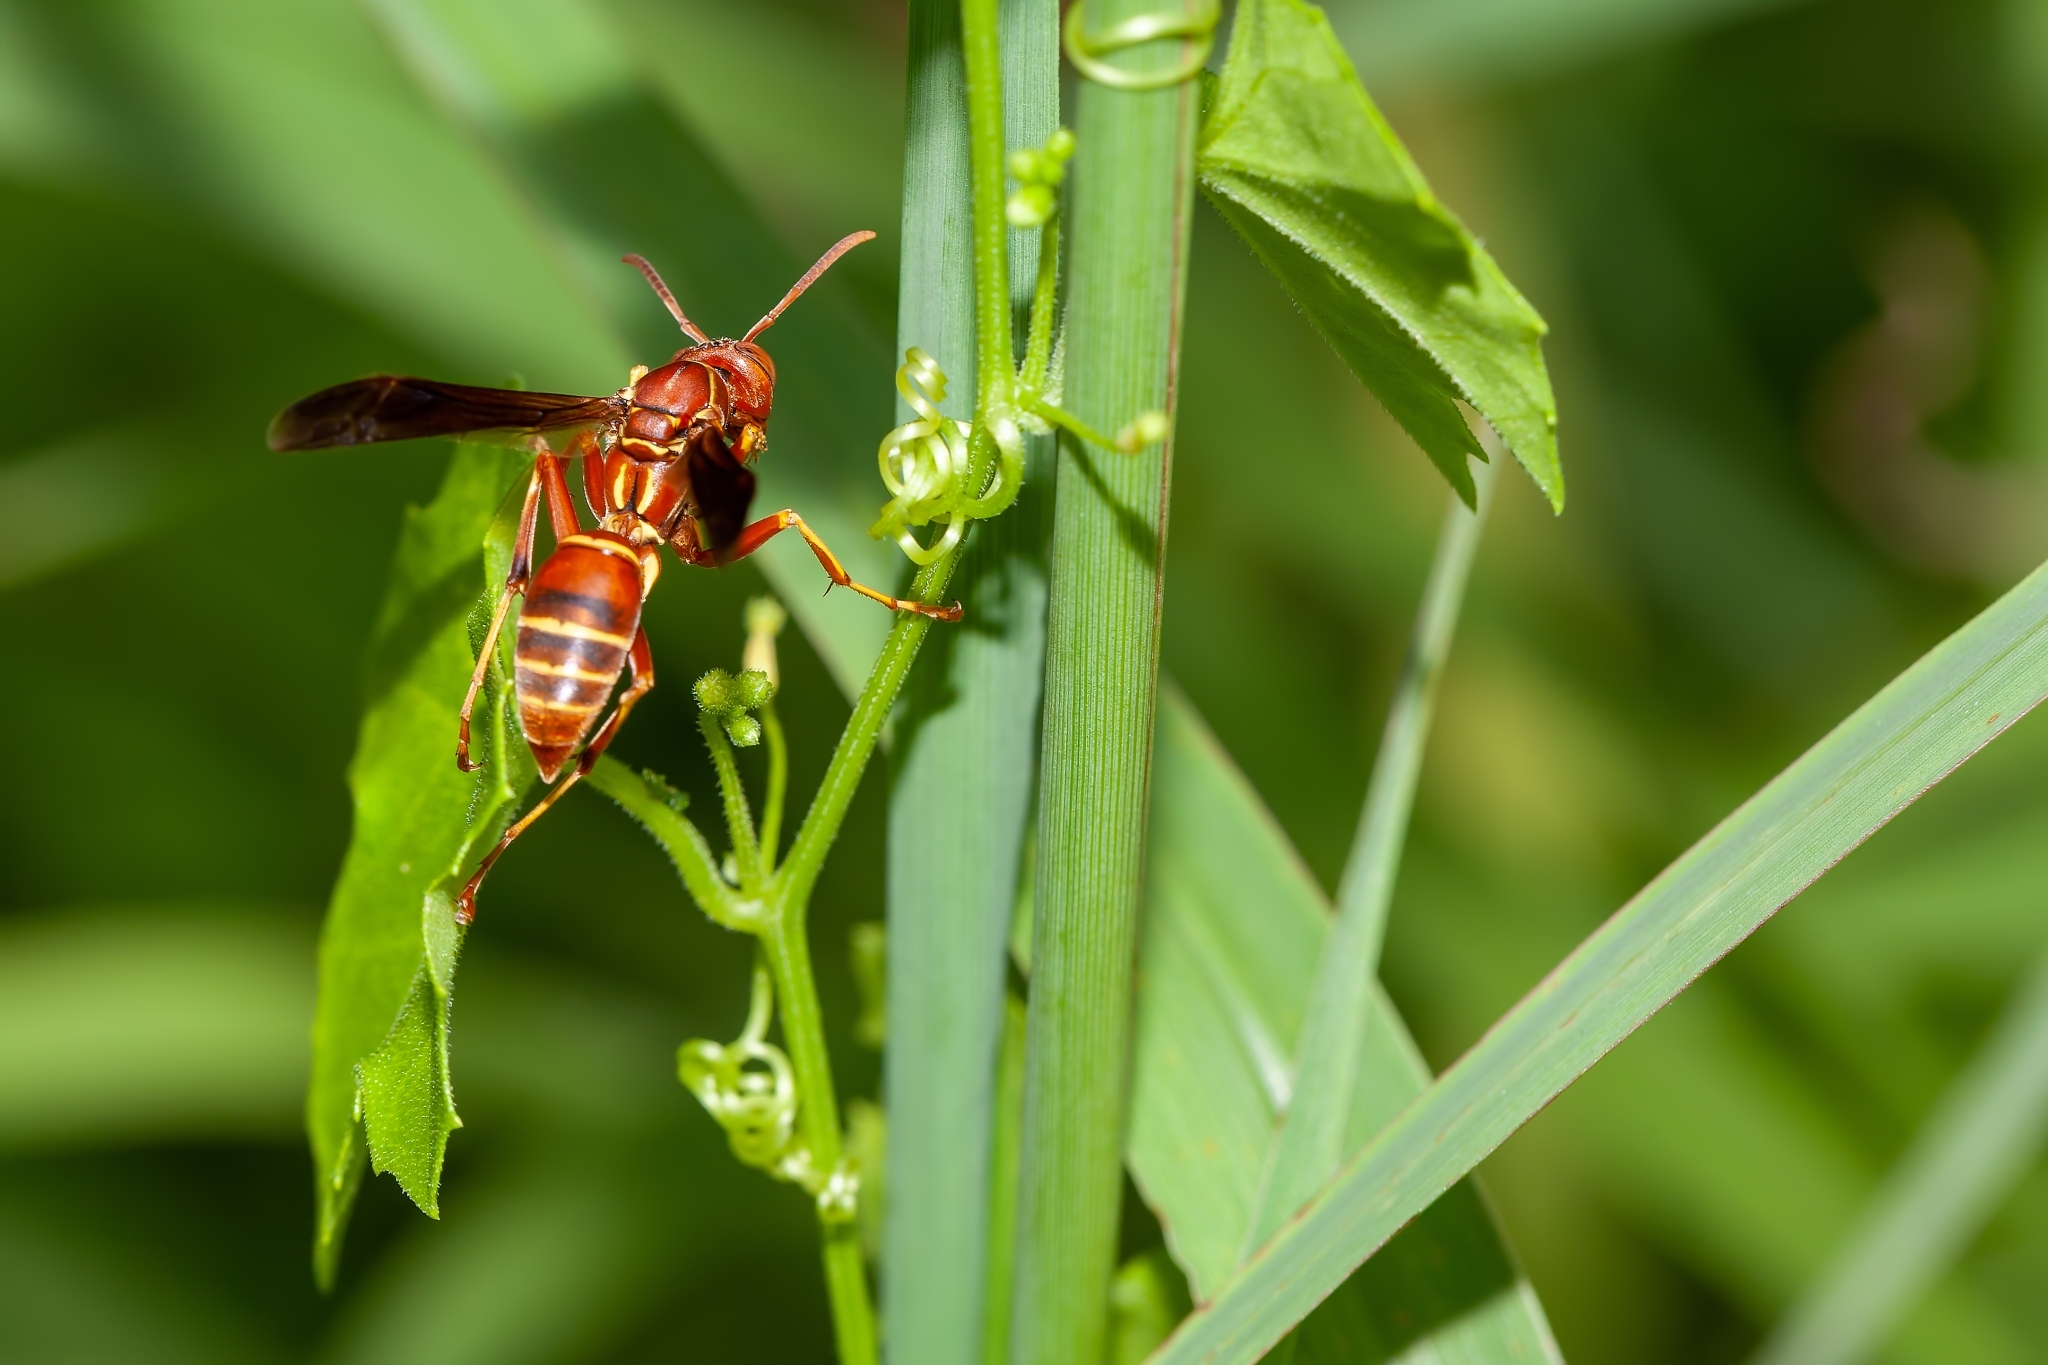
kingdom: Animalia
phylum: Arthropoda
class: Insecta
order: Hymenoptera
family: Vespidae
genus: Fuscopolistes
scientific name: Fuscopolistes
